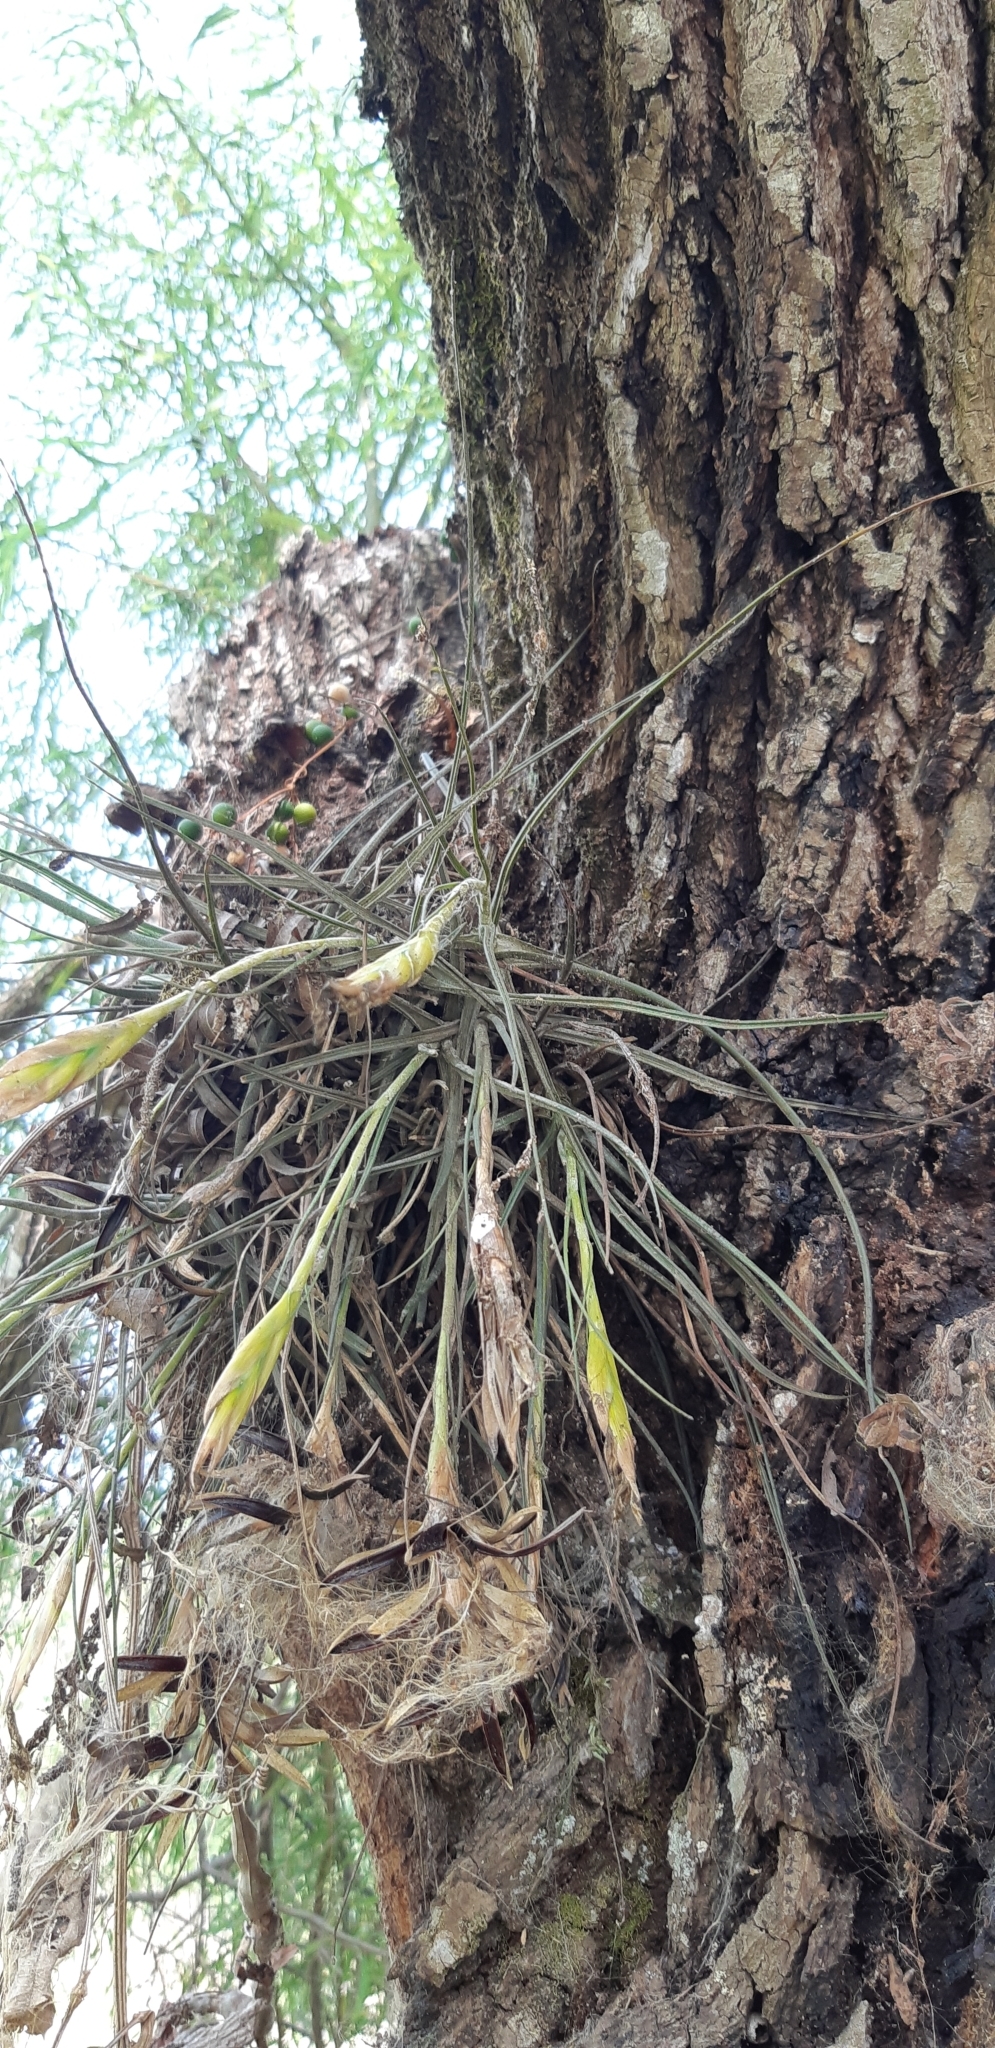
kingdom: Plantae
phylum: Tracheophyta
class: Liliopsida
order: Poales
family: Bromeliaceae
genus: Tillandsia
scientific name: Tillandsia schiedeana
